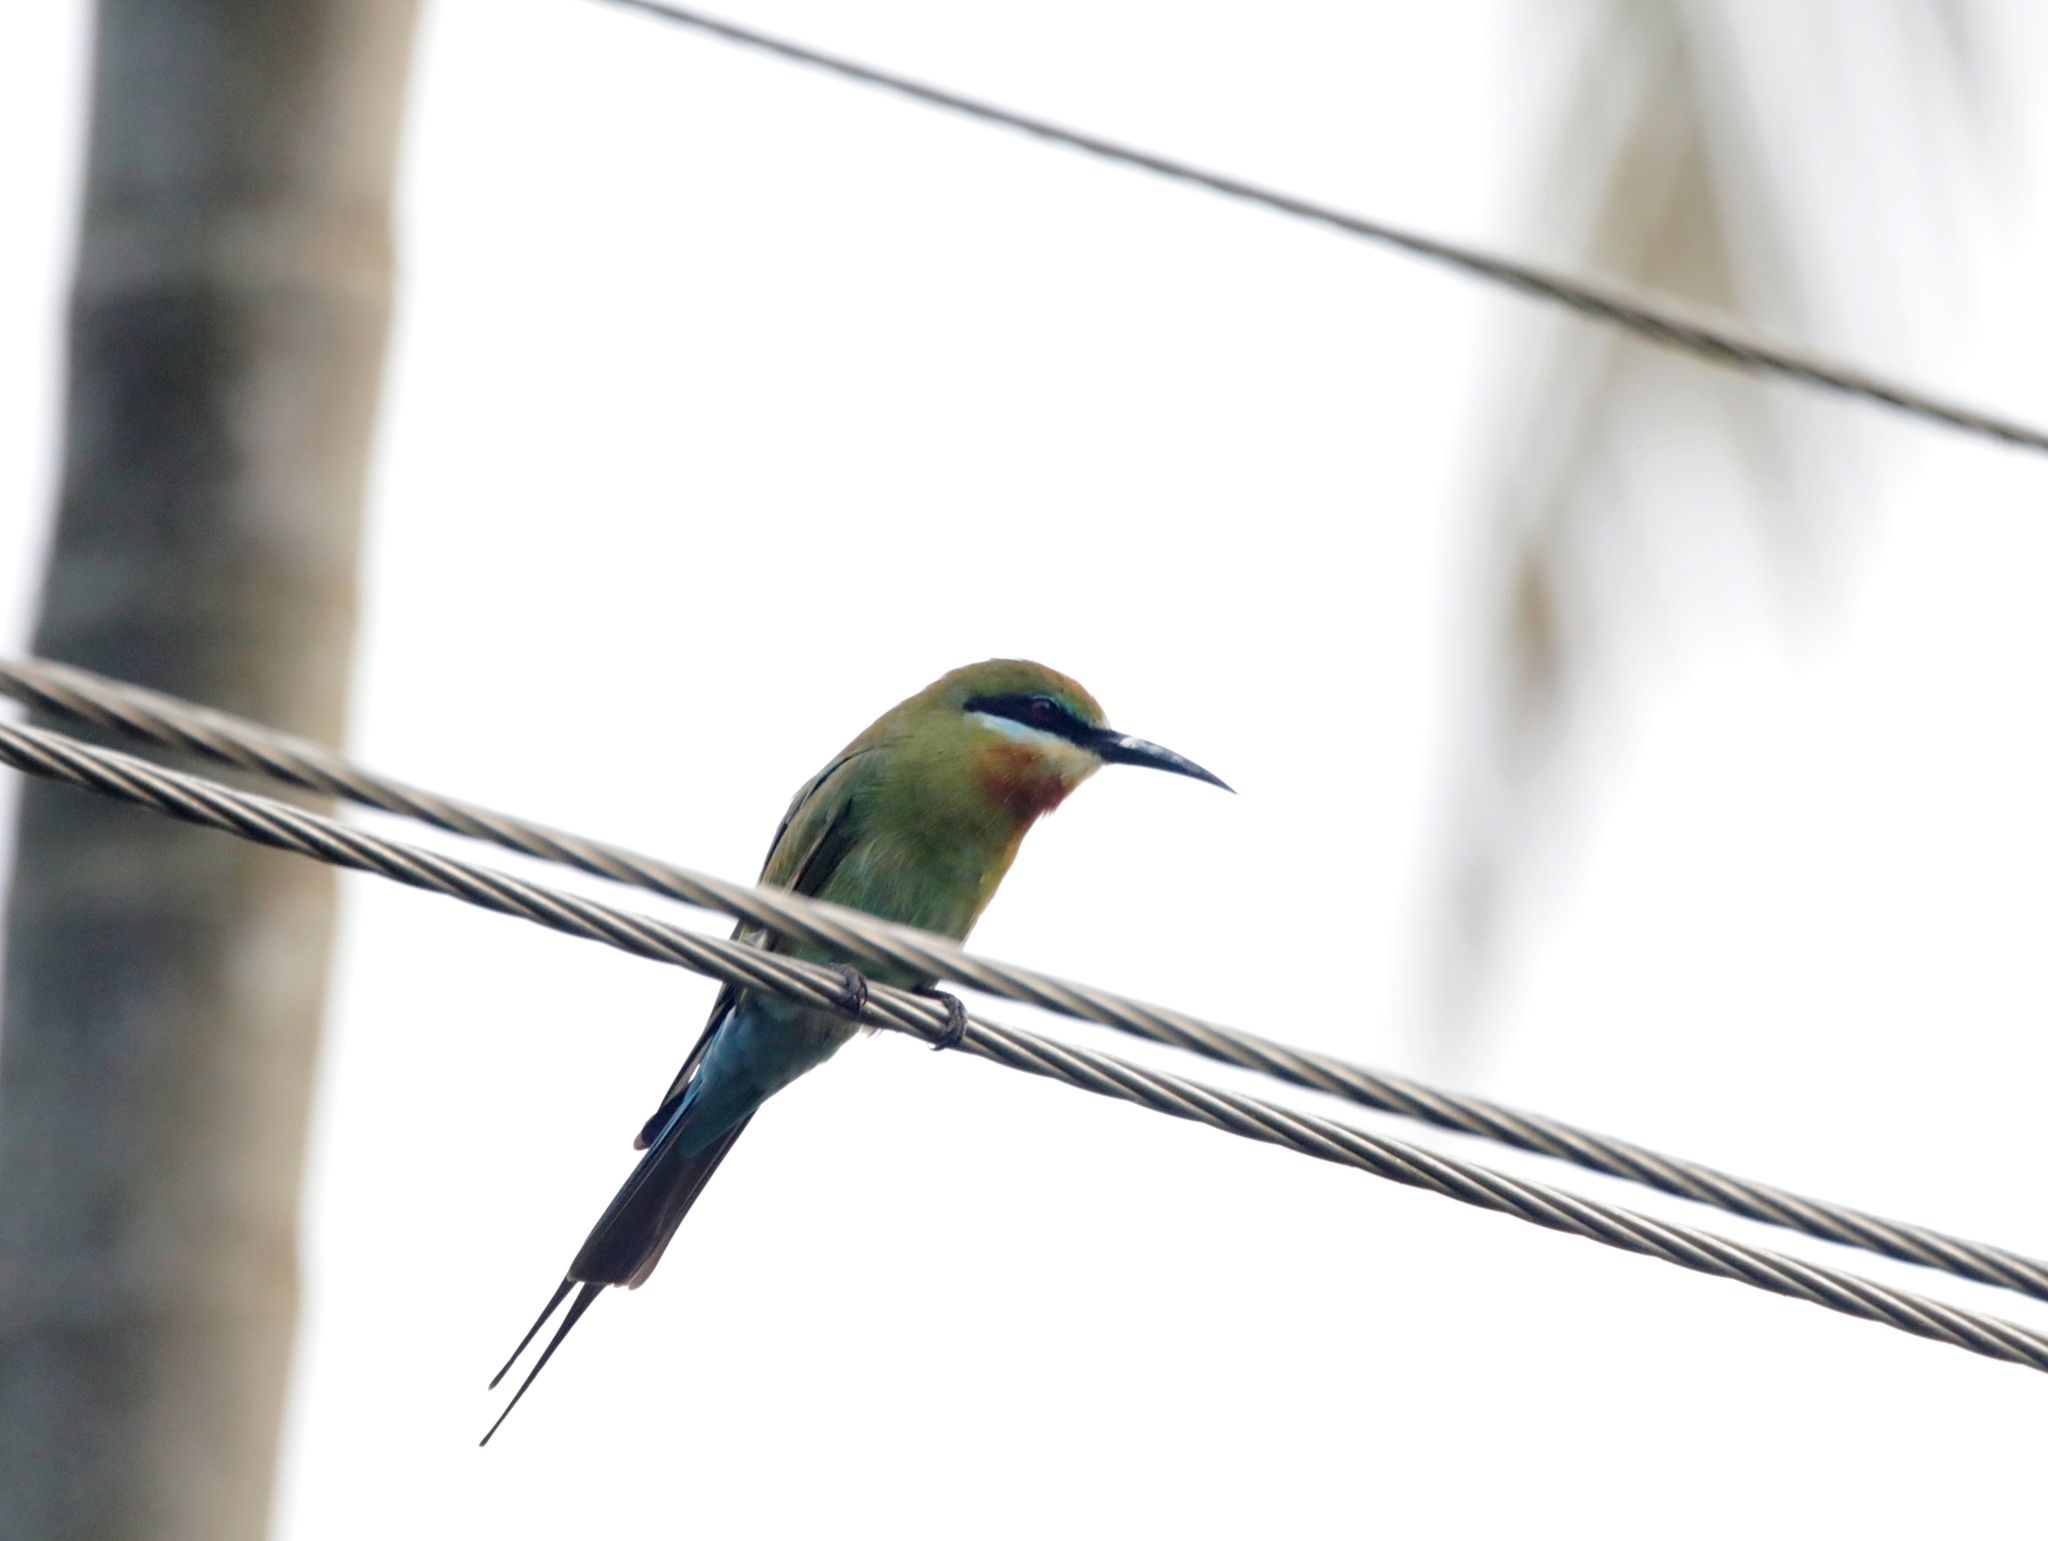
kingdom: Animalia
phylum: Chordata
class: Aves
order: Coraciiformes
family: Meropidae
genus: Merops
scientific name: Merops philippinus
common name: Blue-tailed bee-eater
